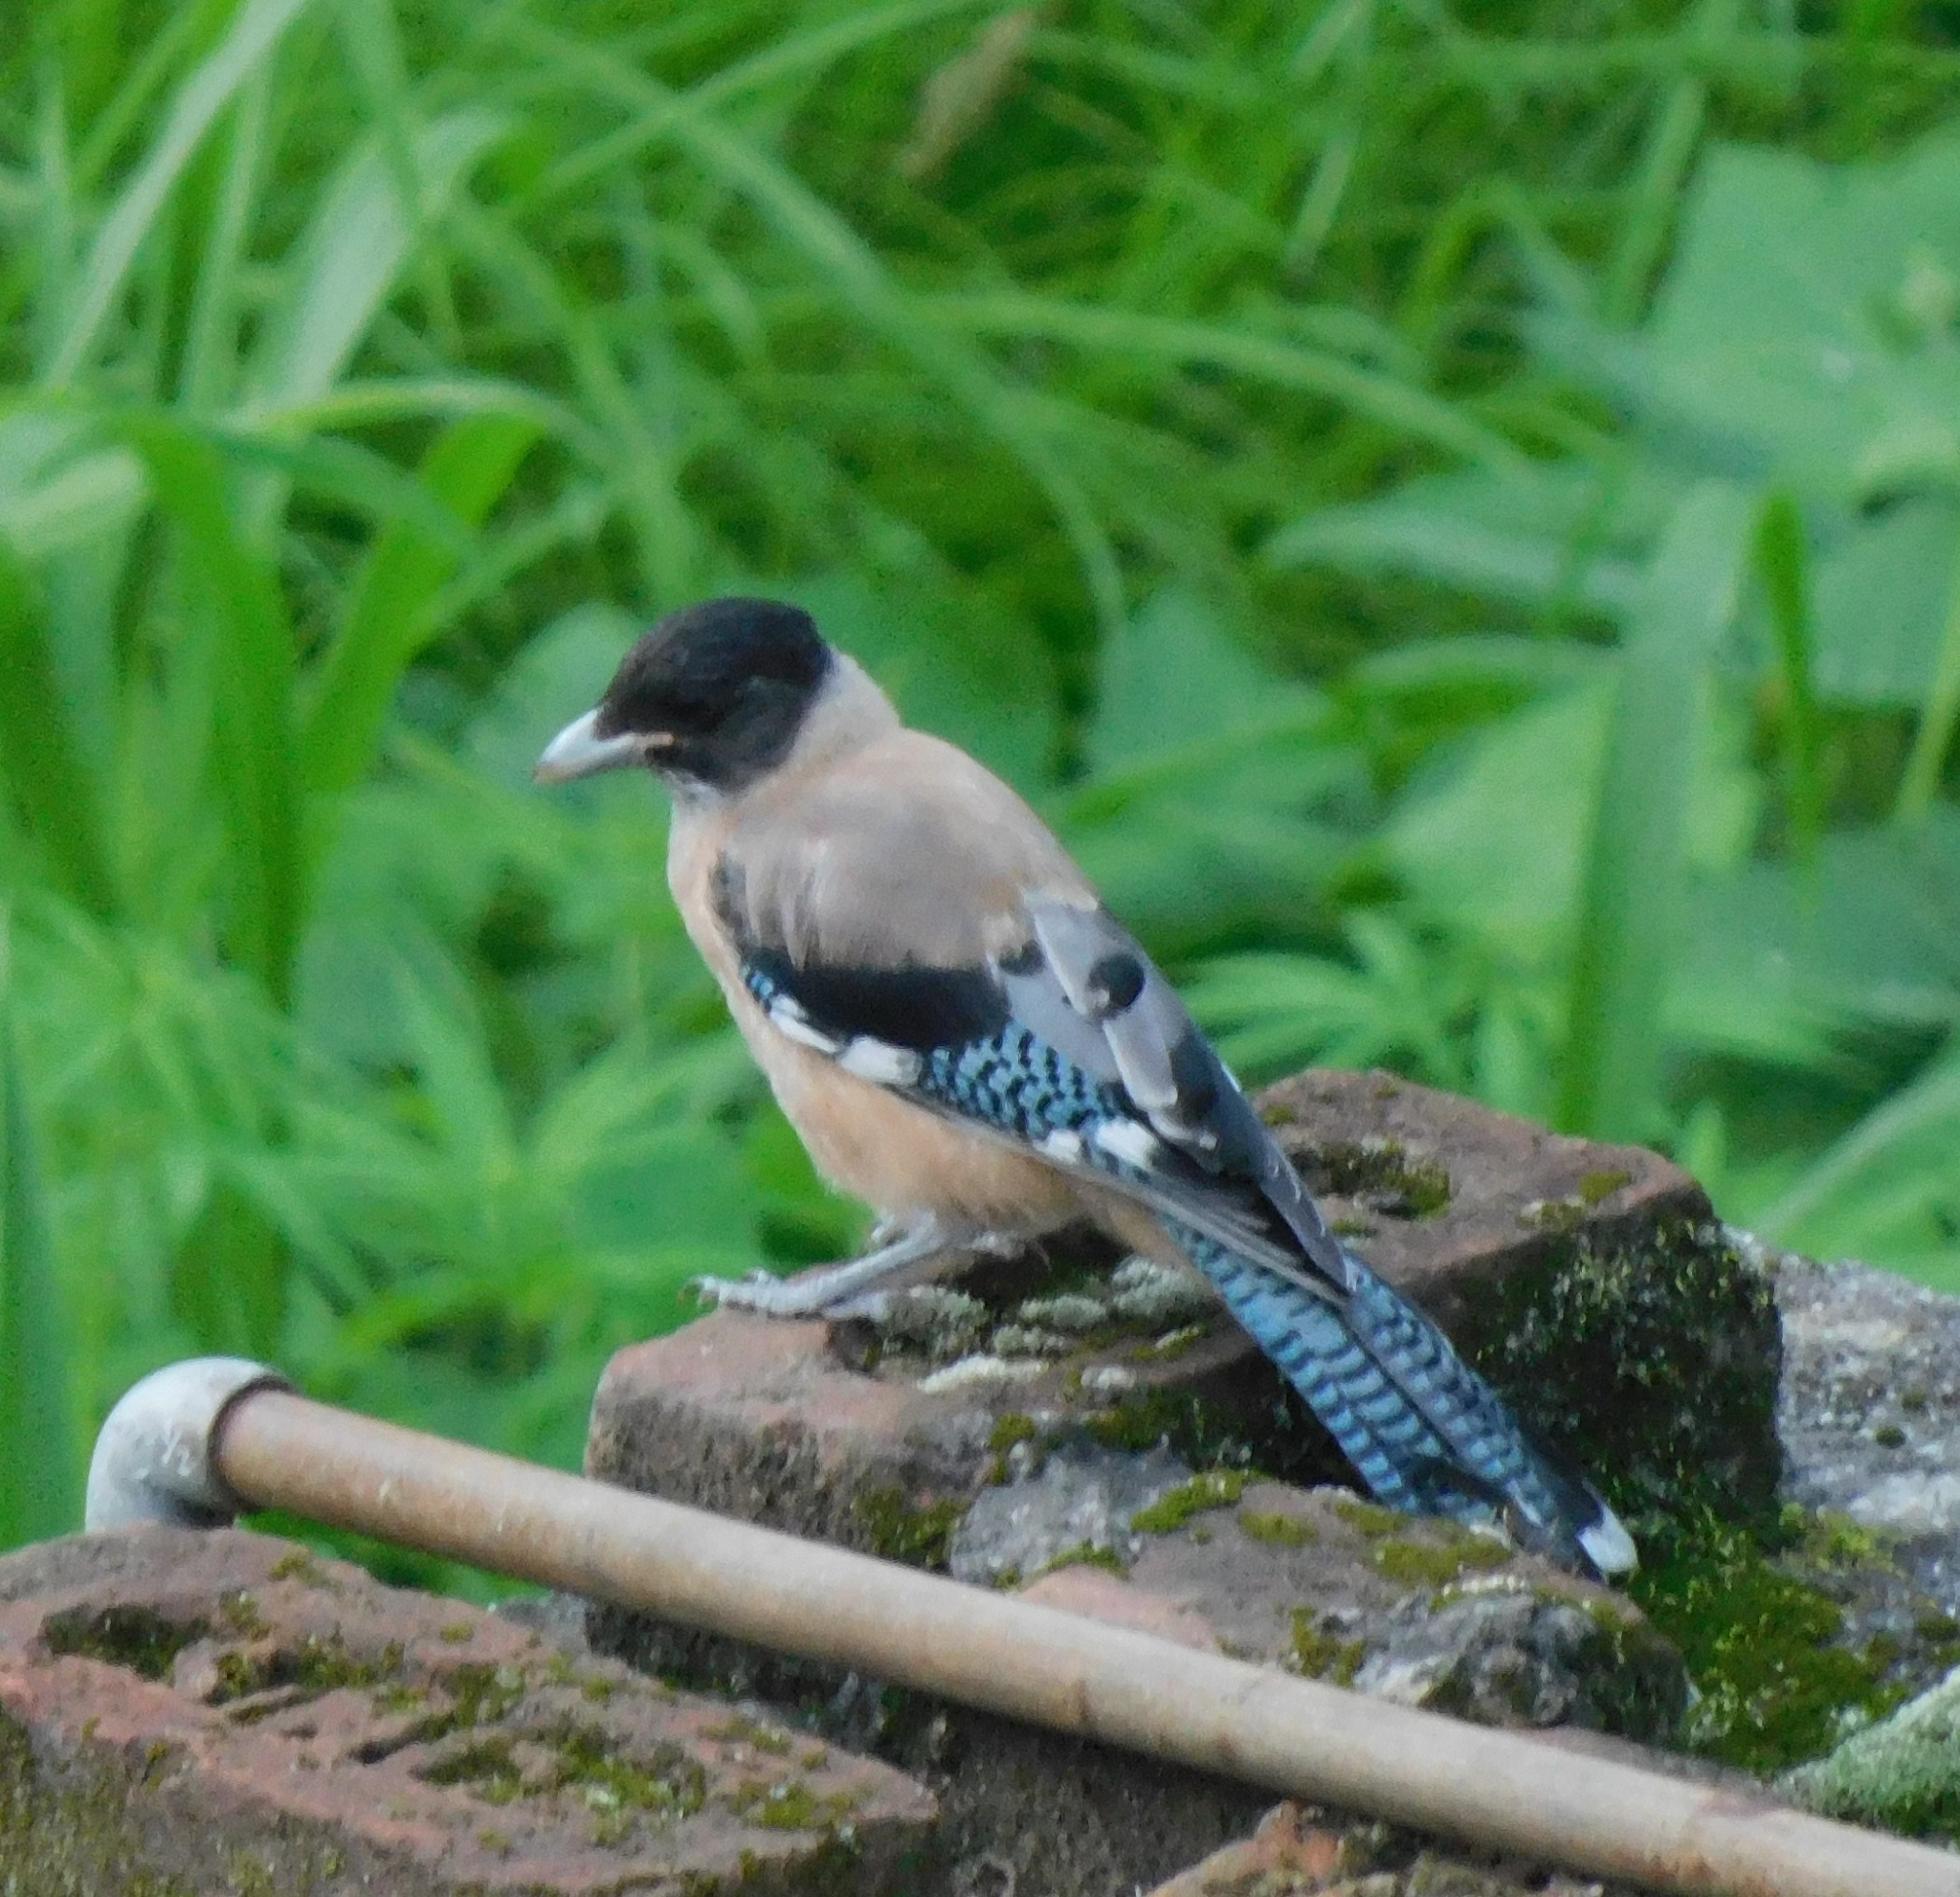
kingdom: Animalia
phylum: Chordata
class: Aves
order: Passeriformes
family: Corvidae
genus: Garrulus
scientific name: Garrulus lanceolatus
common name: Black-headed jay
